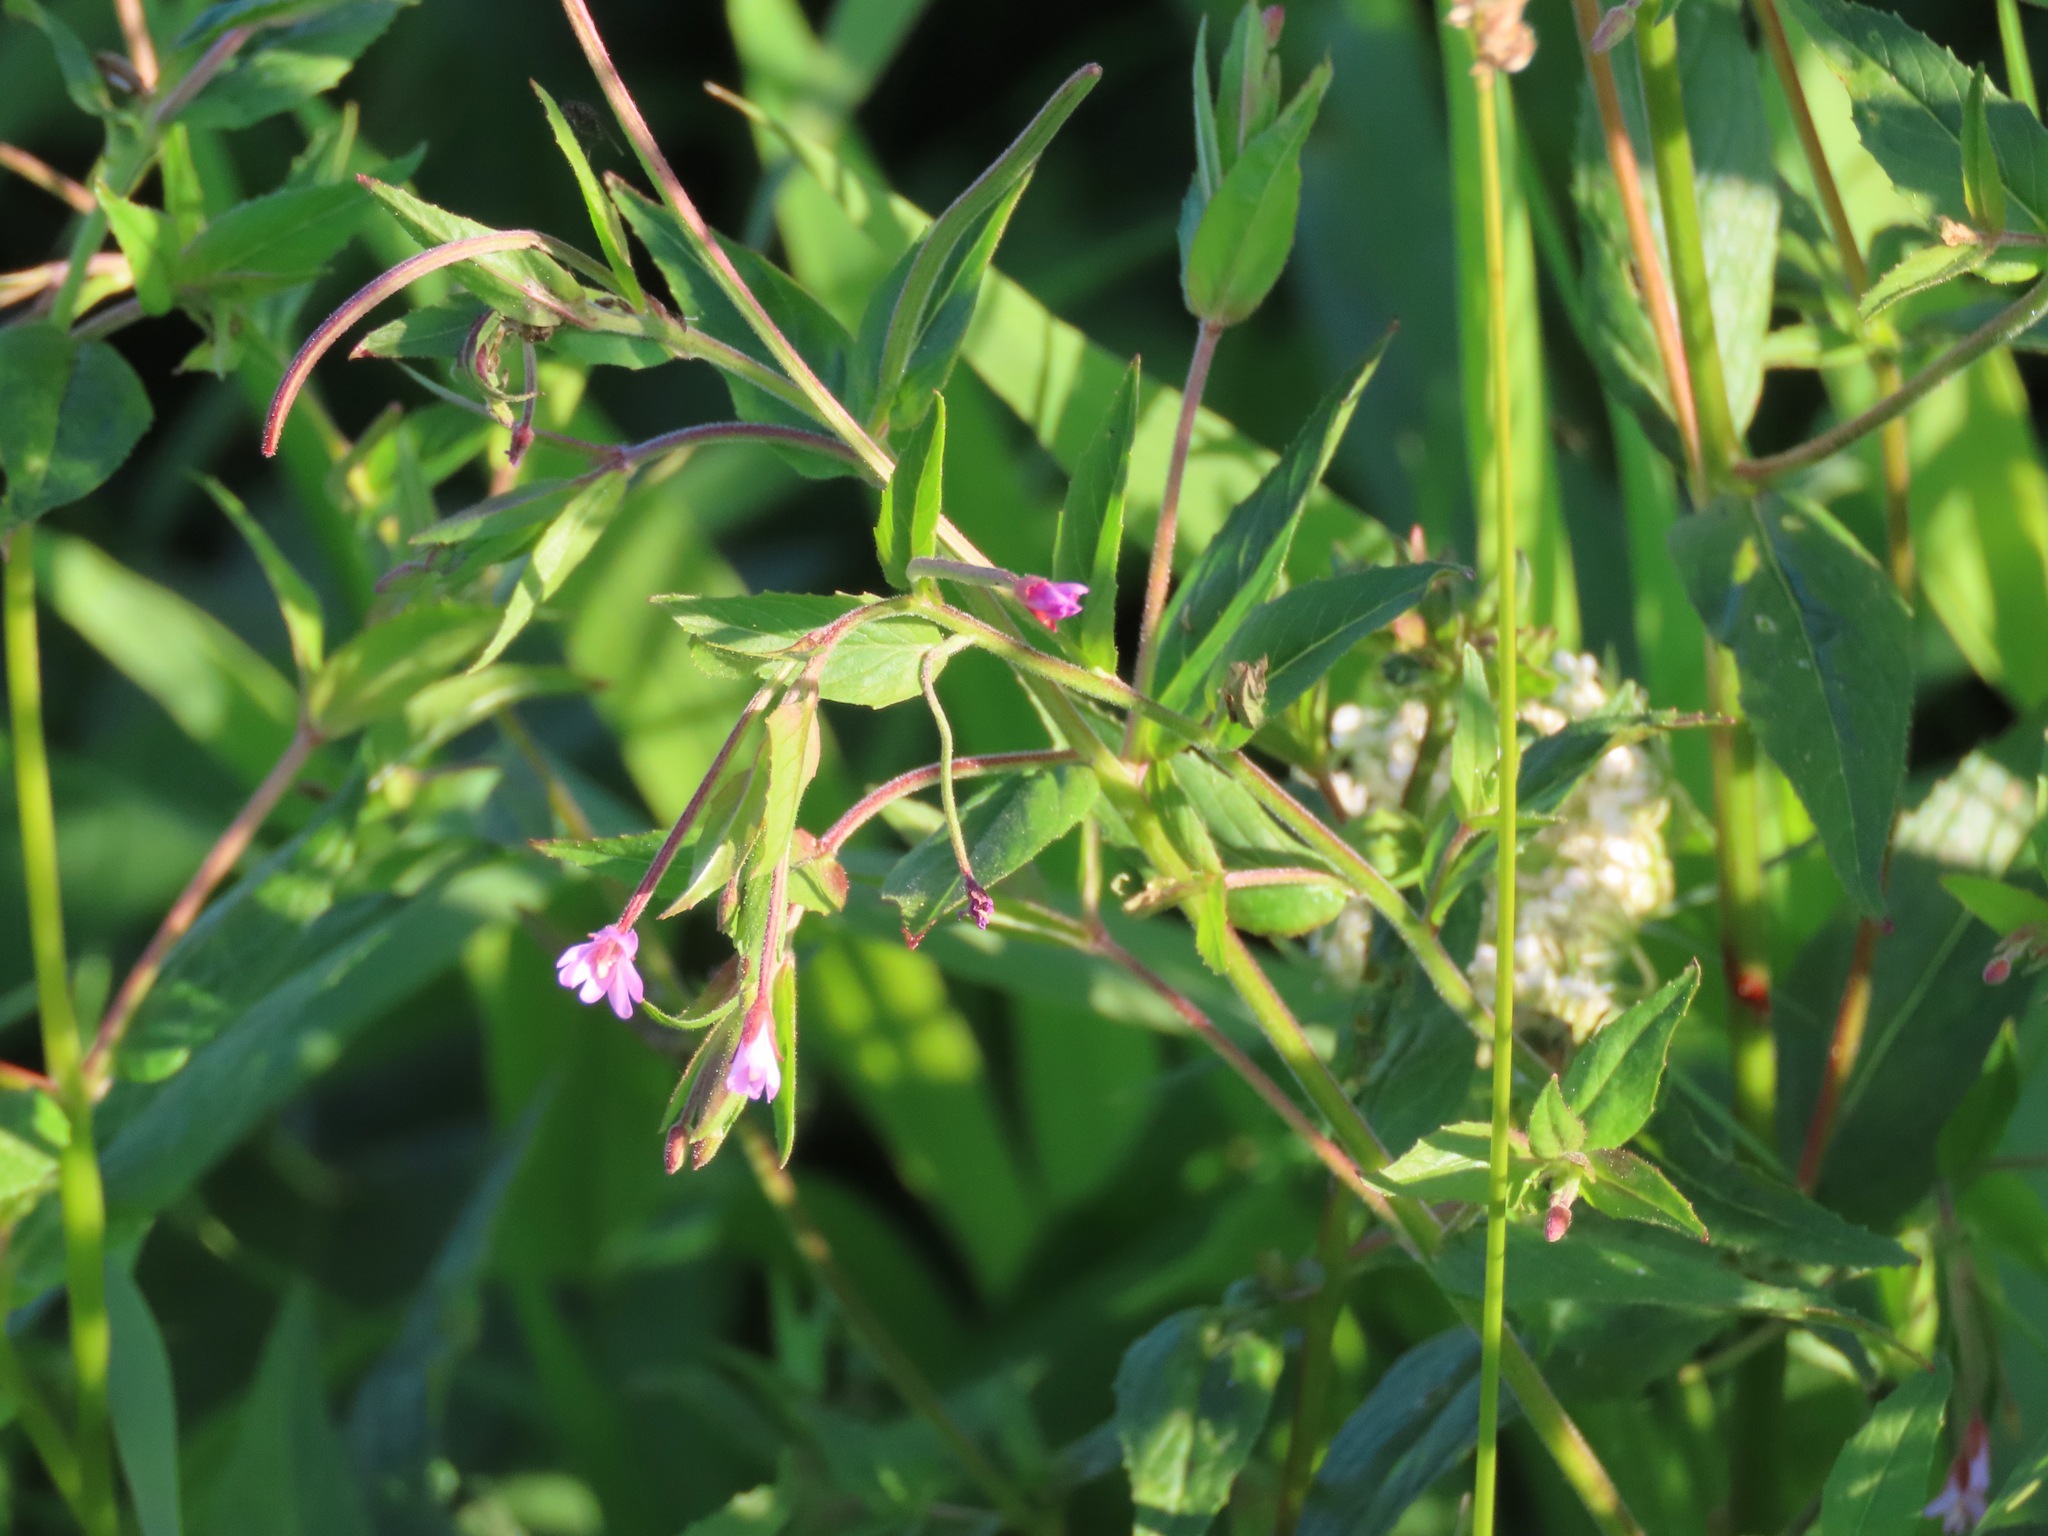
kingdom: Plantae
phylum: Tracheophyta
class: Magnoliopsida
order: Myrtales
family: Onagraceae
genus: Epilobium
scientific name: Epilobium ciliatum
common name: American willowherb
